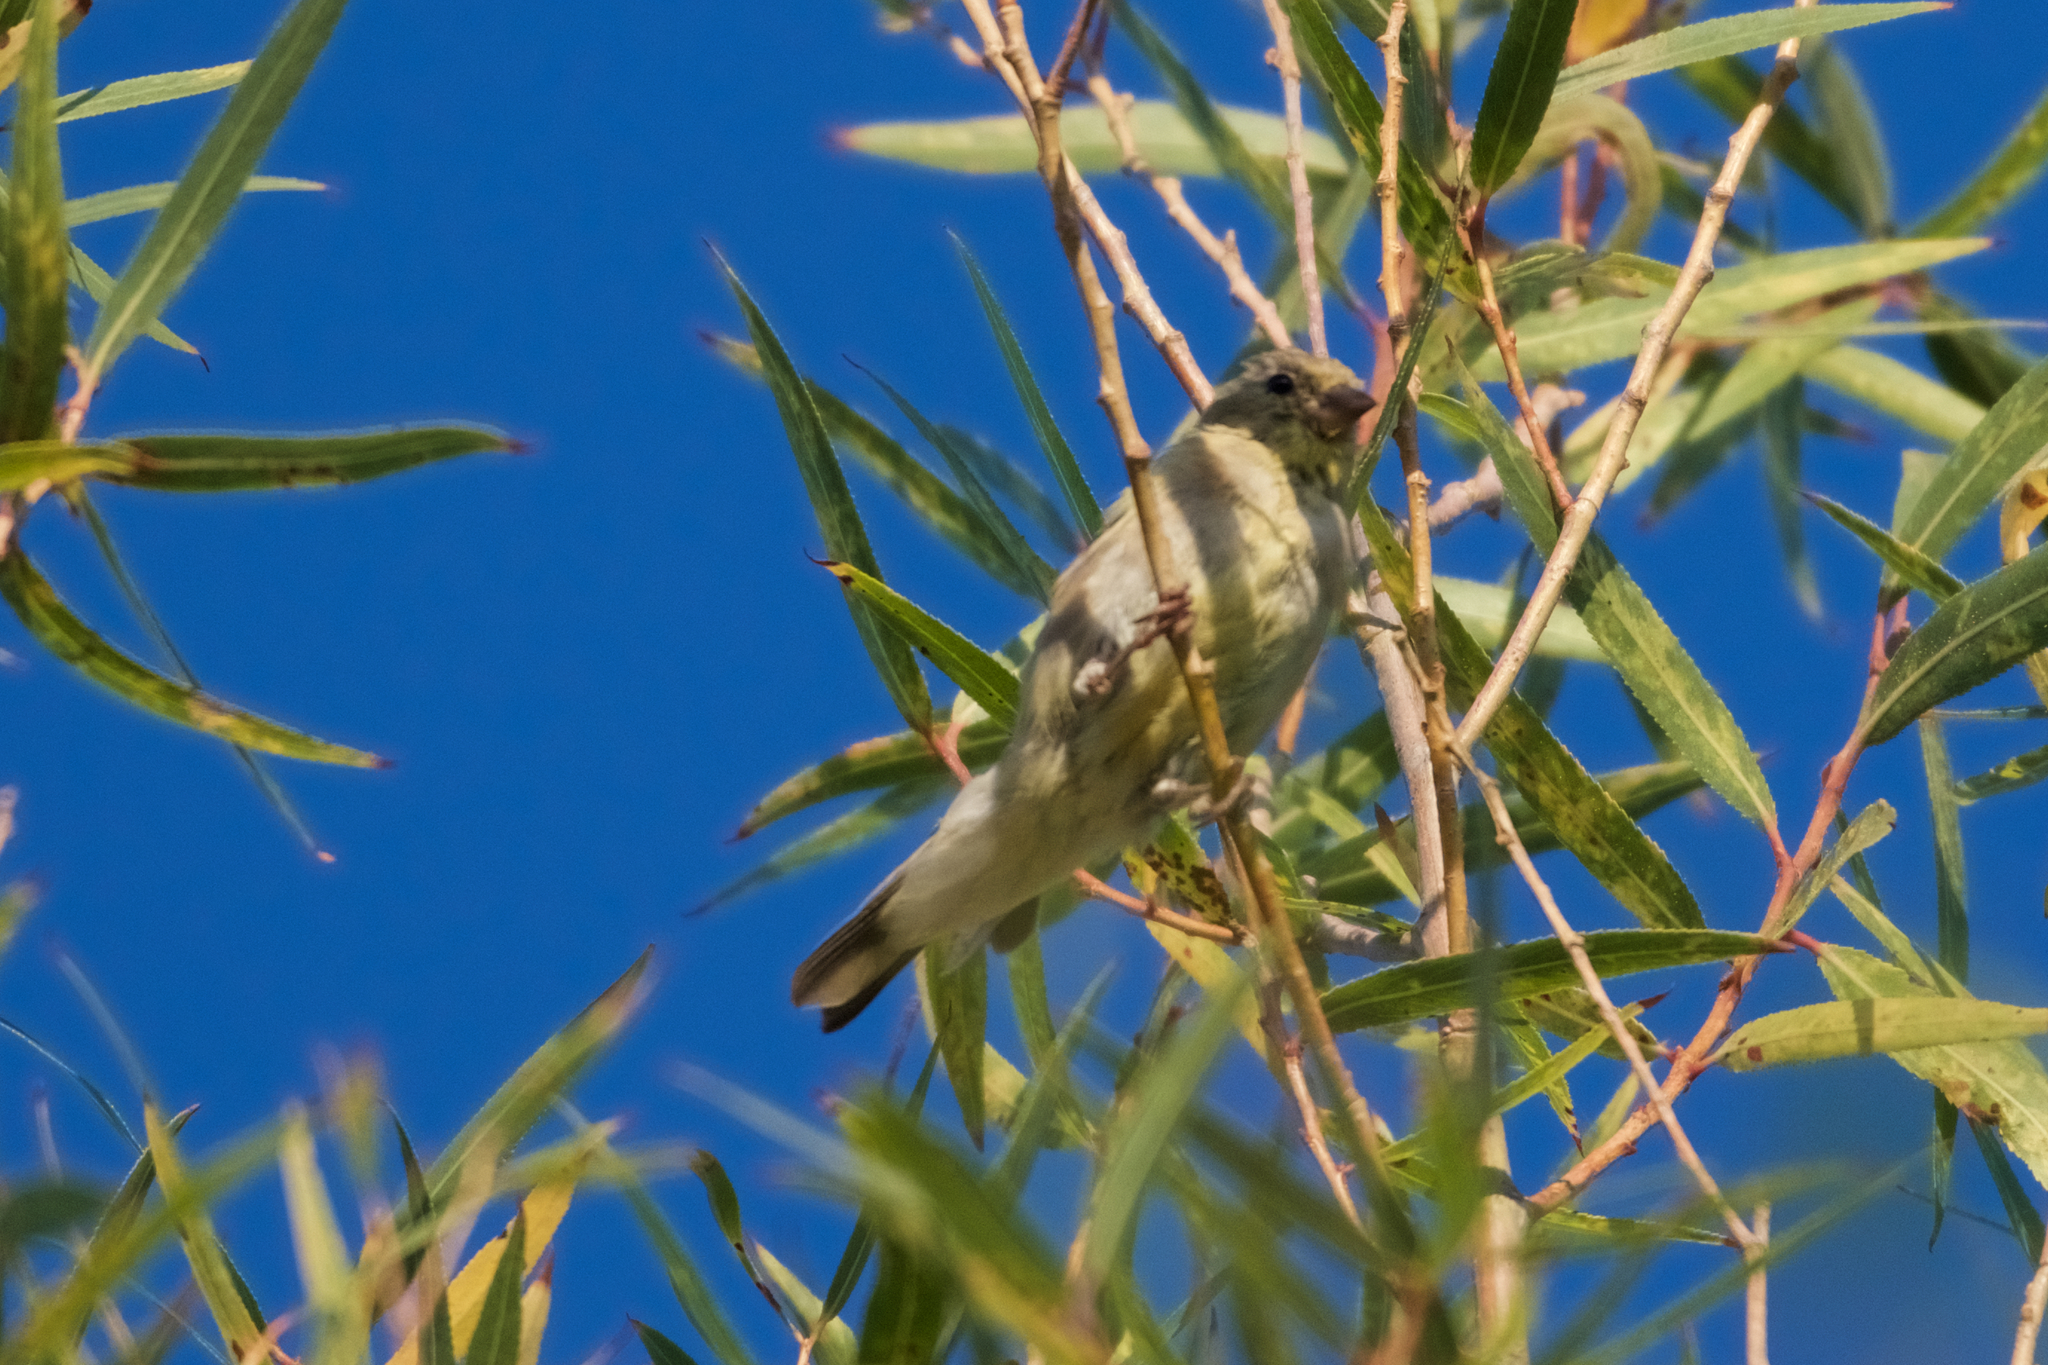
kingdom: Animalia
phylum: Chordata
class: Aves
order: Passeriformes
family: Fringillidae
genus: Spinus
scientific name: Spinus psaltria
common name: Lesser goldfinch
